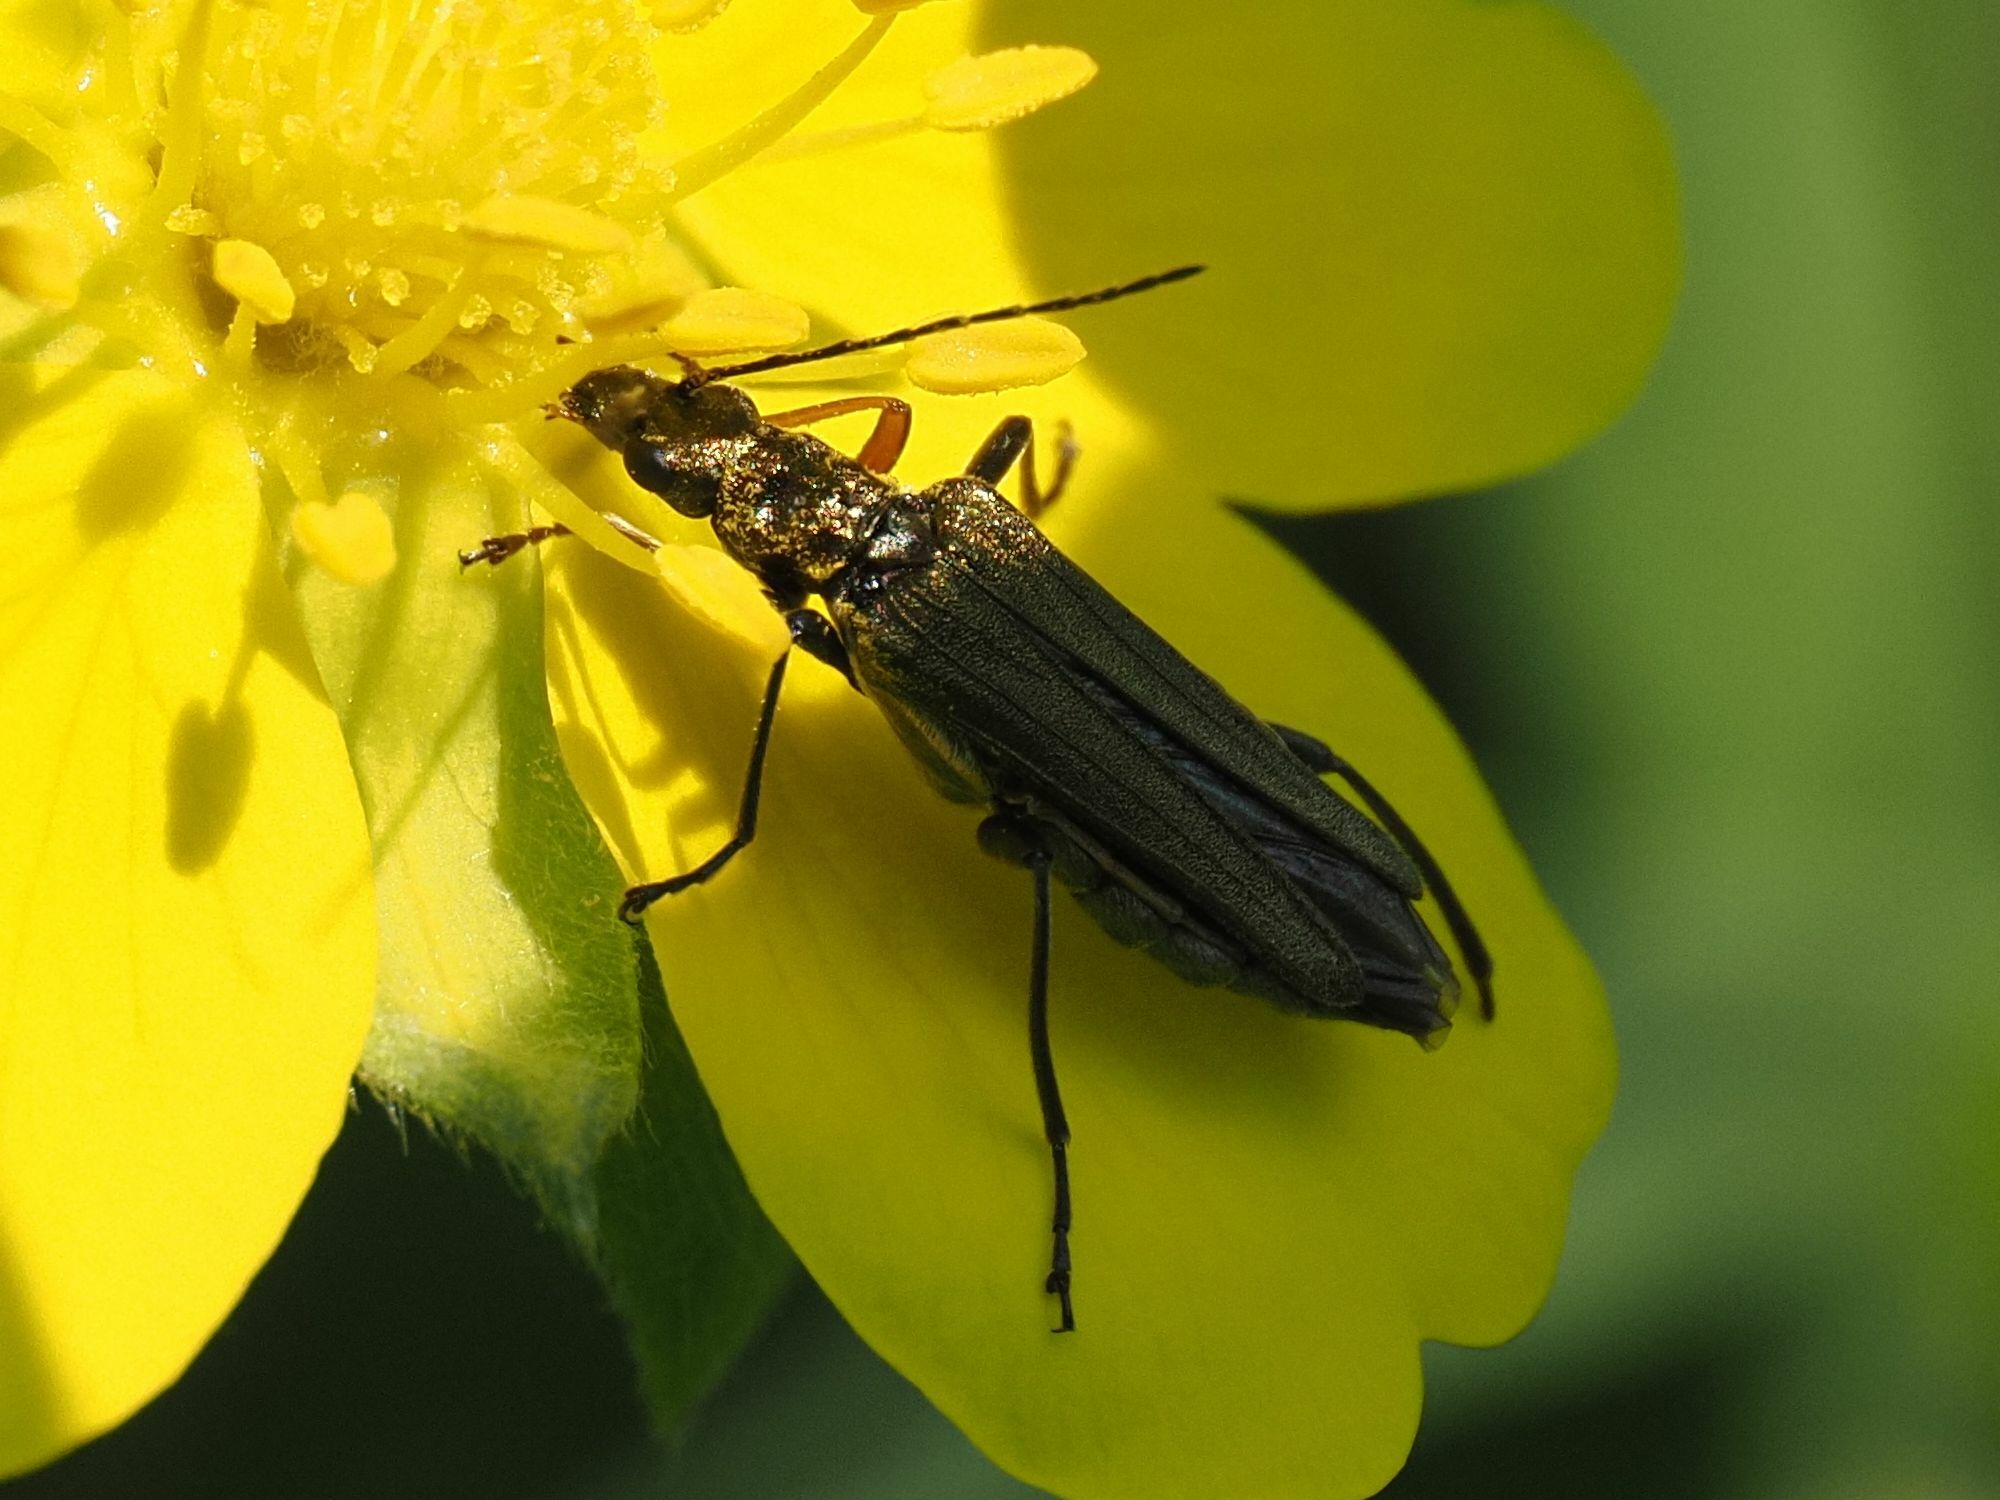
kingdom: Animalia
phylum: Arthropoda
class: Insecta
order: Coleoptera
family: Oedemeridae
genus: Oedemera
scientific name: Oedemera flavipes
